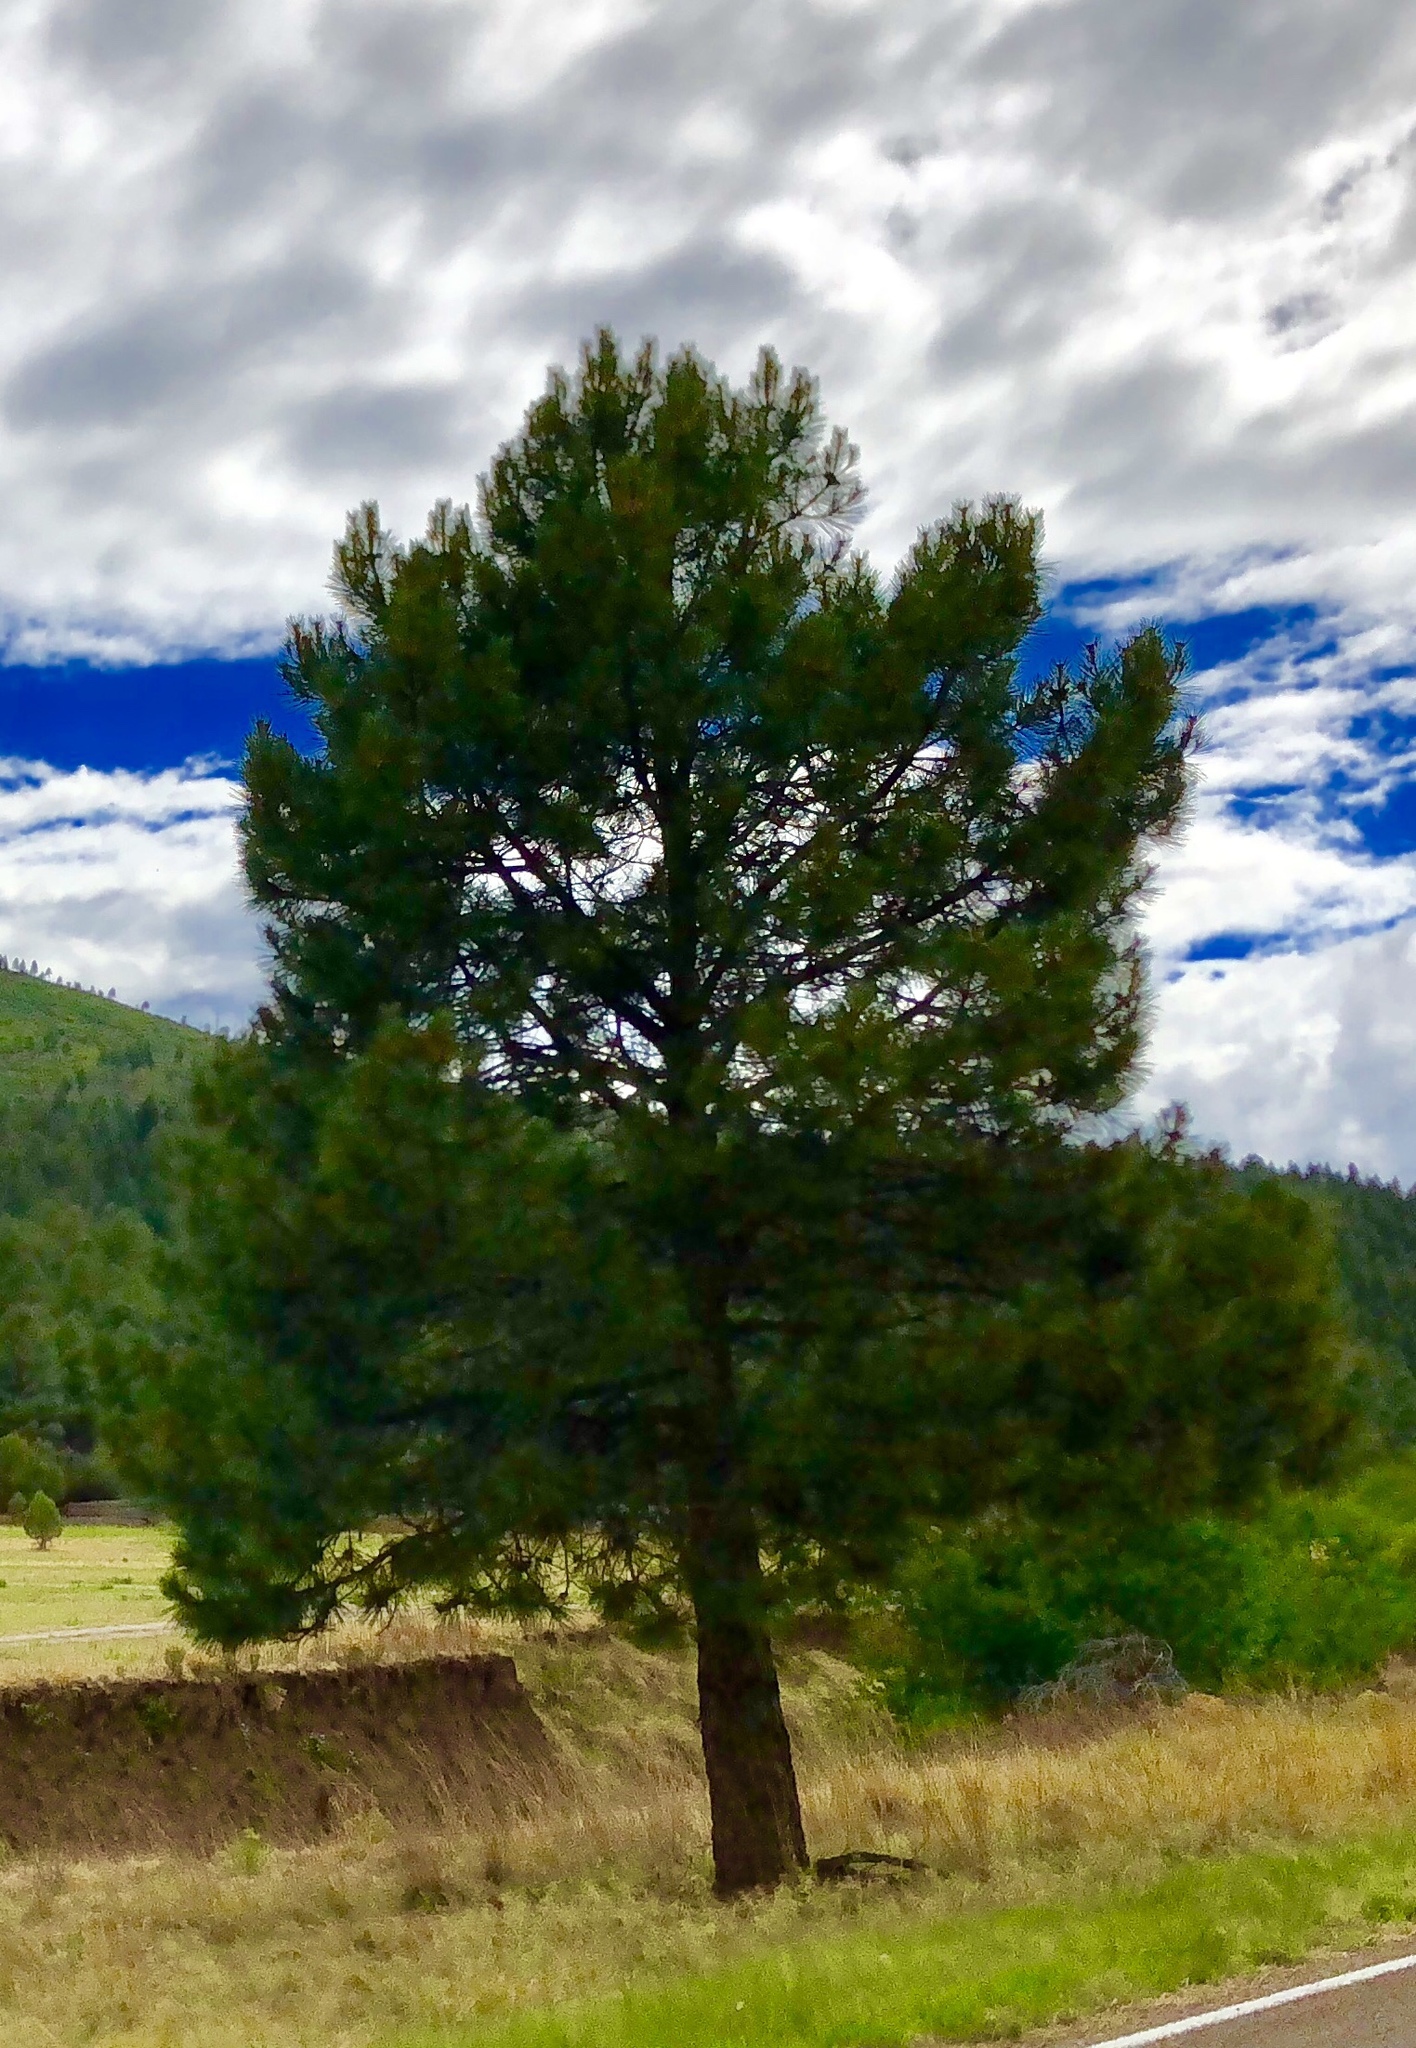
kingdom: Plantae
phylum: Tracheophyta
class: Pinopsida
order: Pinales
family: Pinaceae
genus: Pinus
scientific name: Pinus ponderosa
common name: Western yellow-pine
